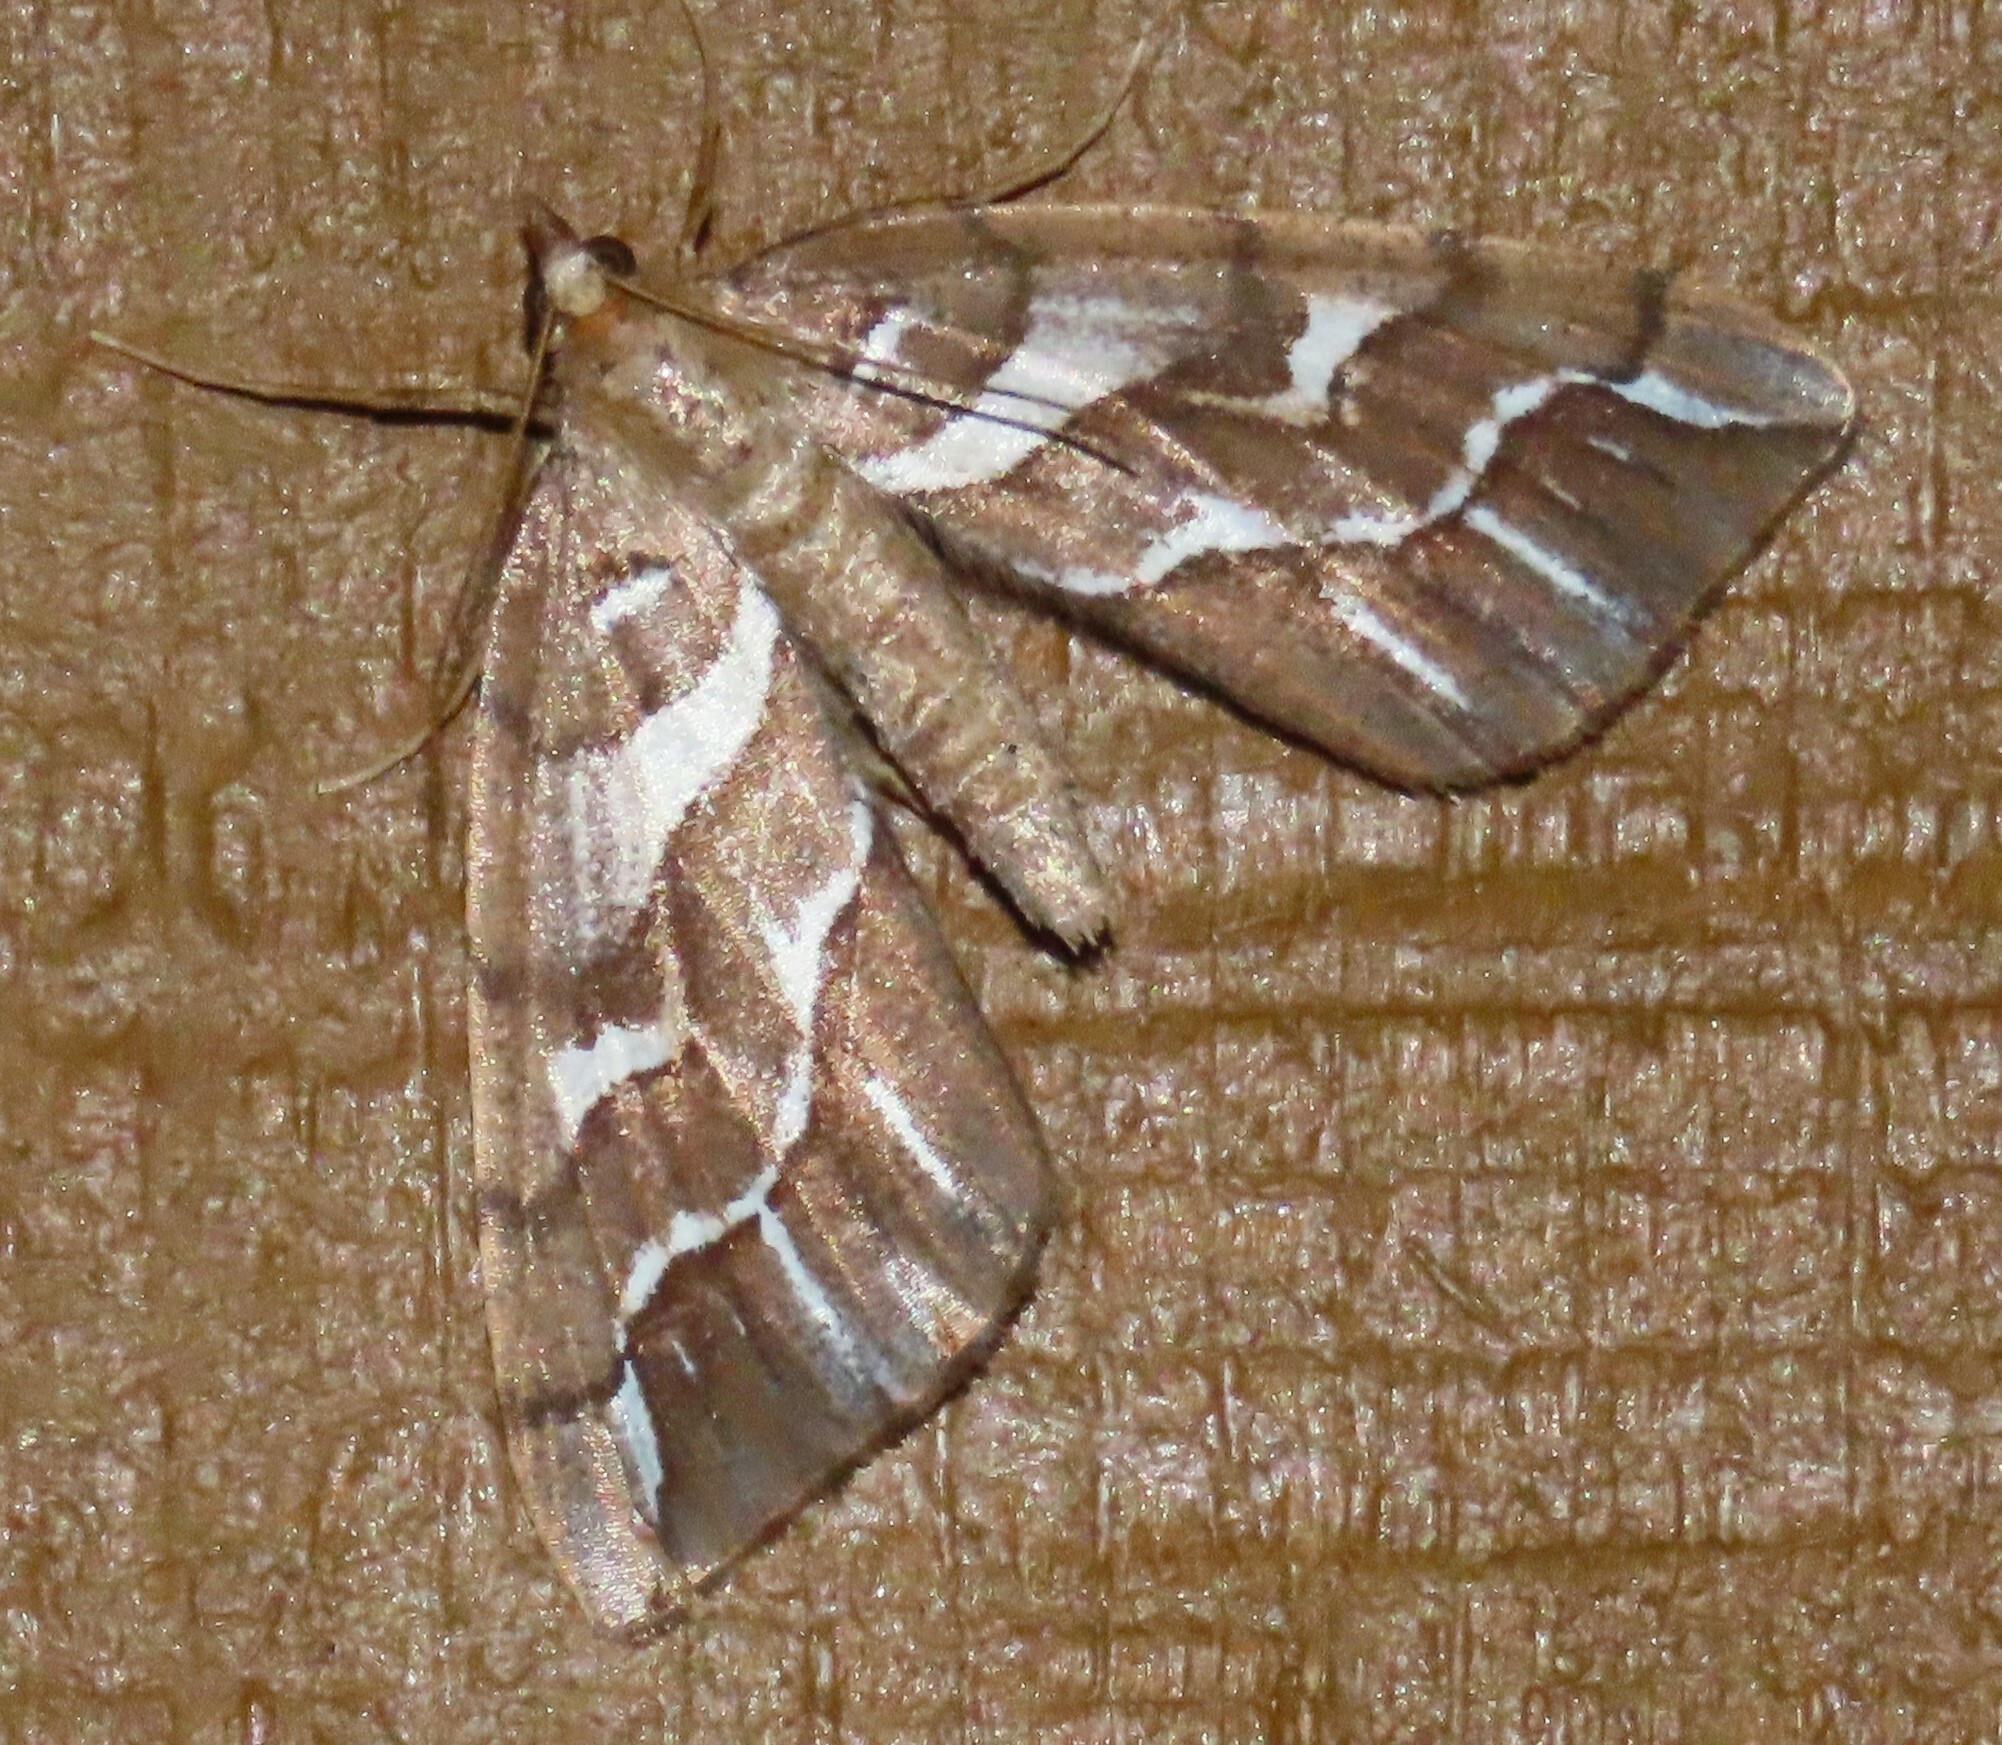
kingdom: Animalia
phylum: Arthropoda
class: Insecta
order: Lepidoptera
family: Geometridae
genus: Chalastra
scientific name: Chalastra aristarcha
